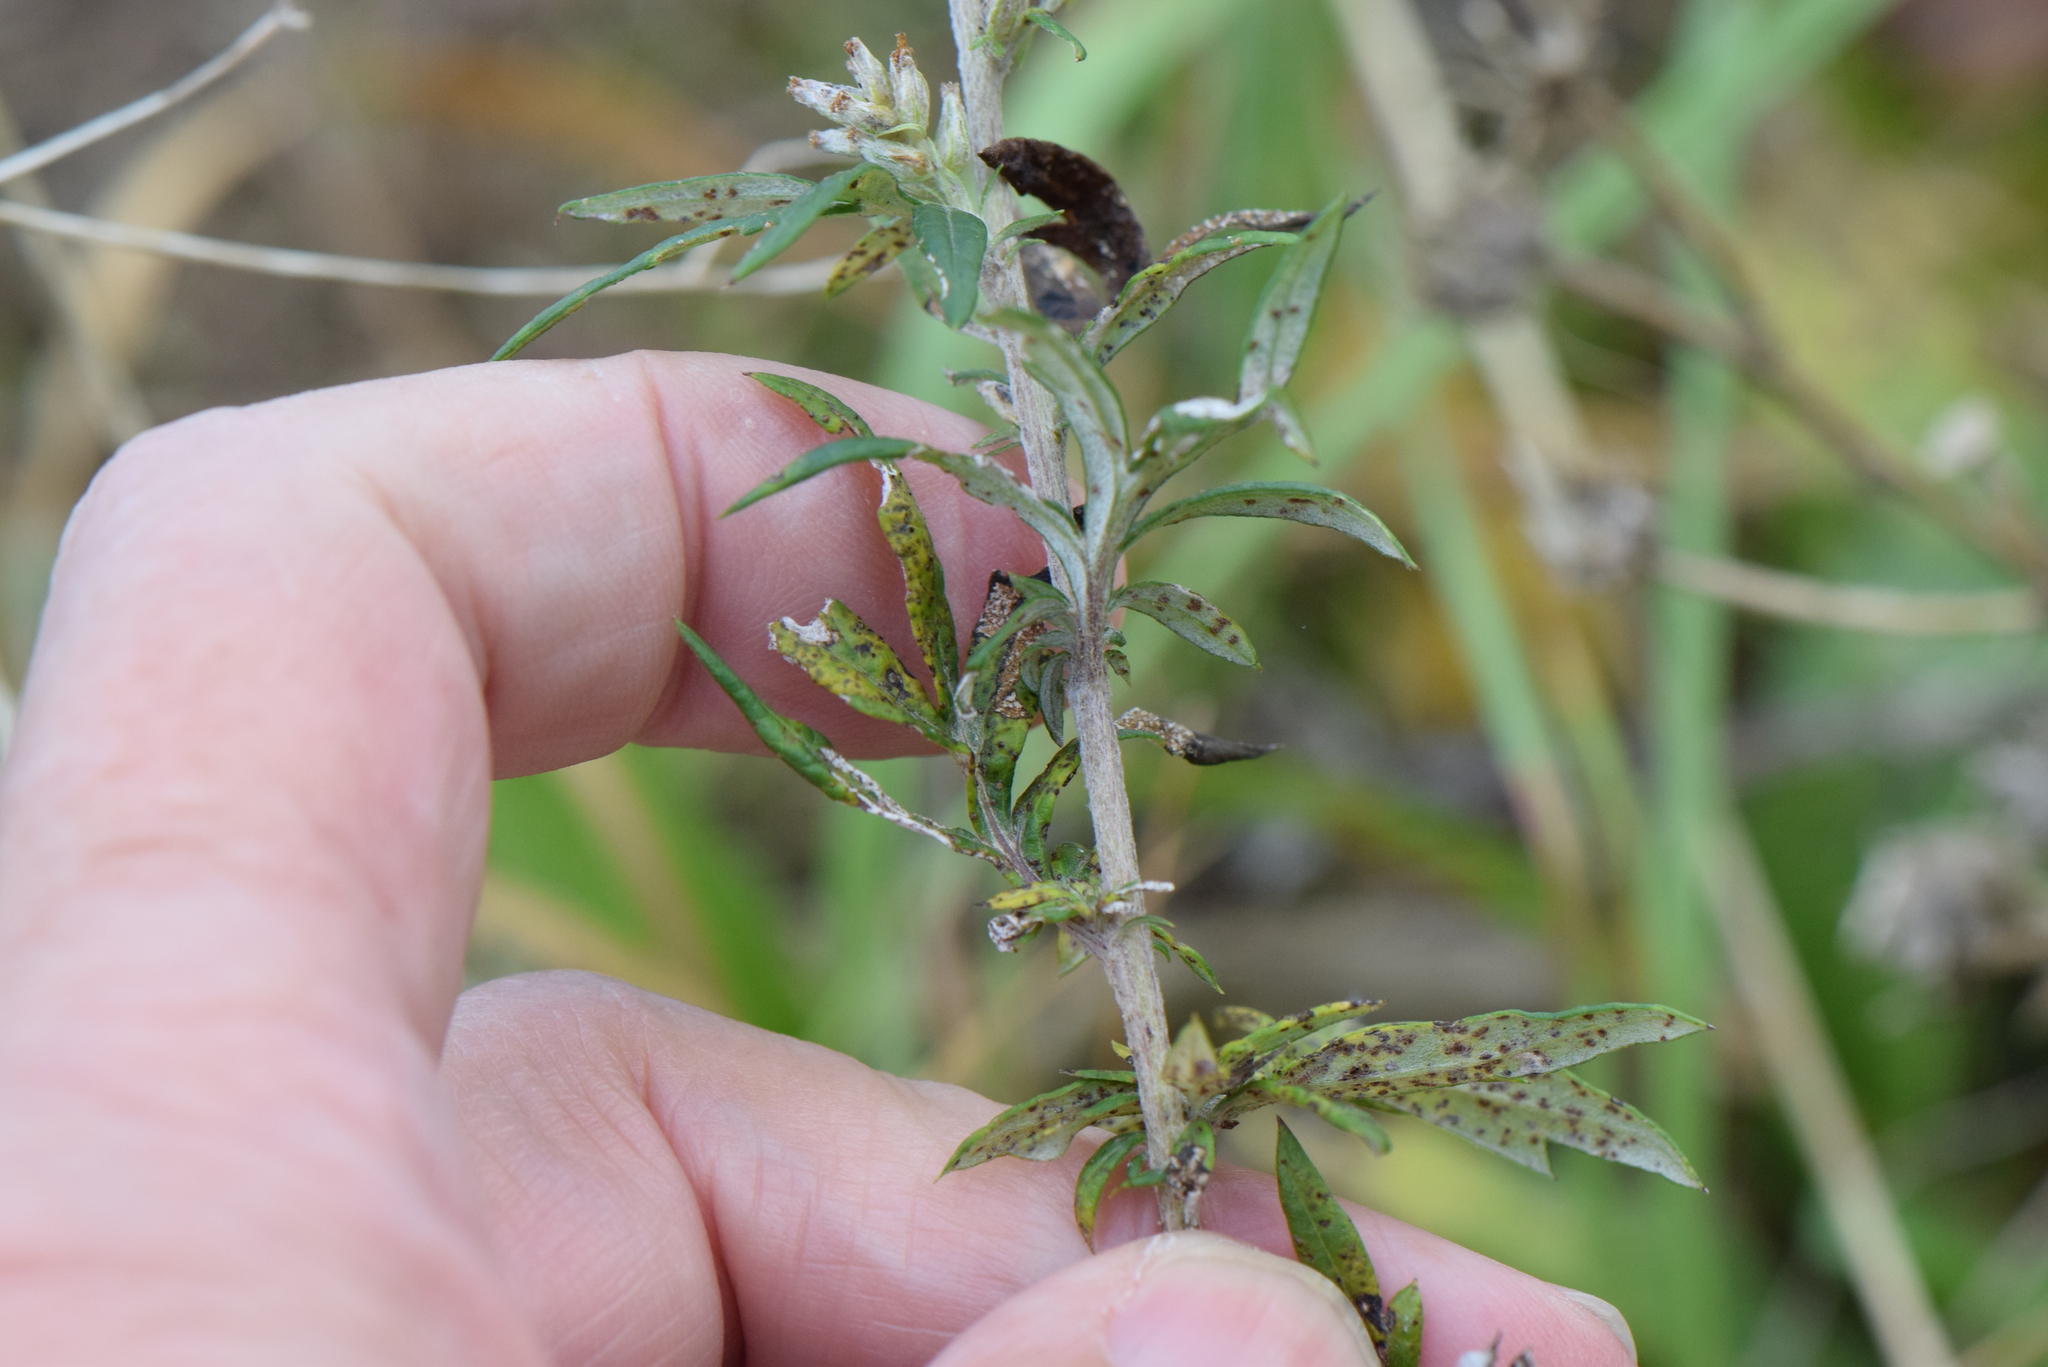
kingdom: Plantae
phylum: Tracheophyta
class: Magnoliopsida
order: Asterales
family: Asteraceae
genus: Artemisia
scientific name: Artemisia vulgaris
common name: Mugwort
